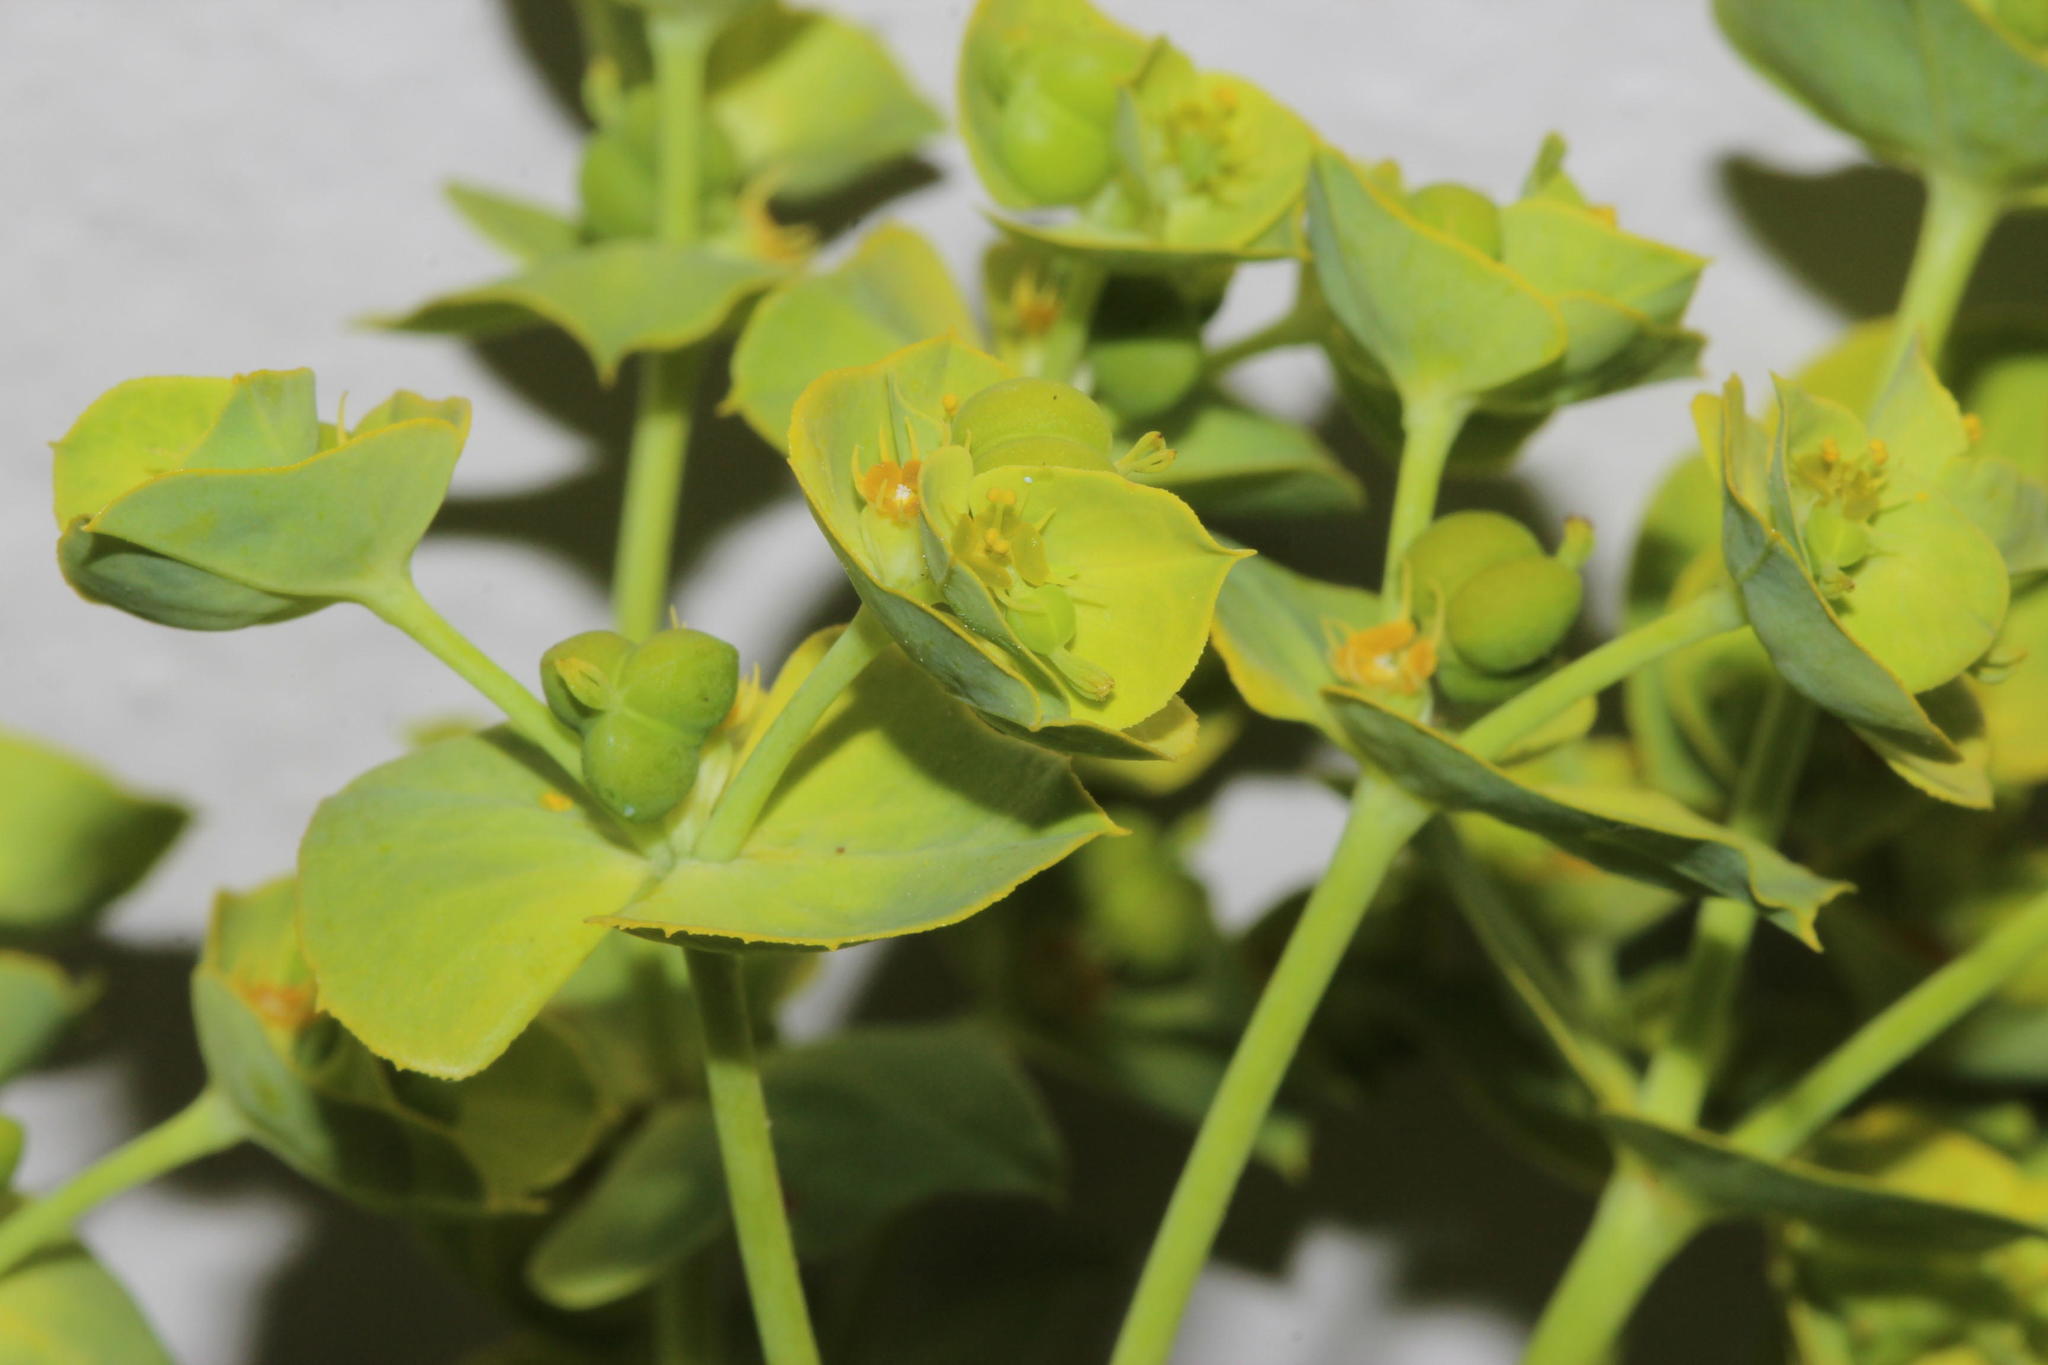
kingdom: Plantae
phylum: Tracheophyta
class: Magnoliopsida
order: Malpighiales
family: Euphorbiaceae
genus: Euphorbia
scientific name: Euphorbia terracina
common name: Geraldton carnation weed
